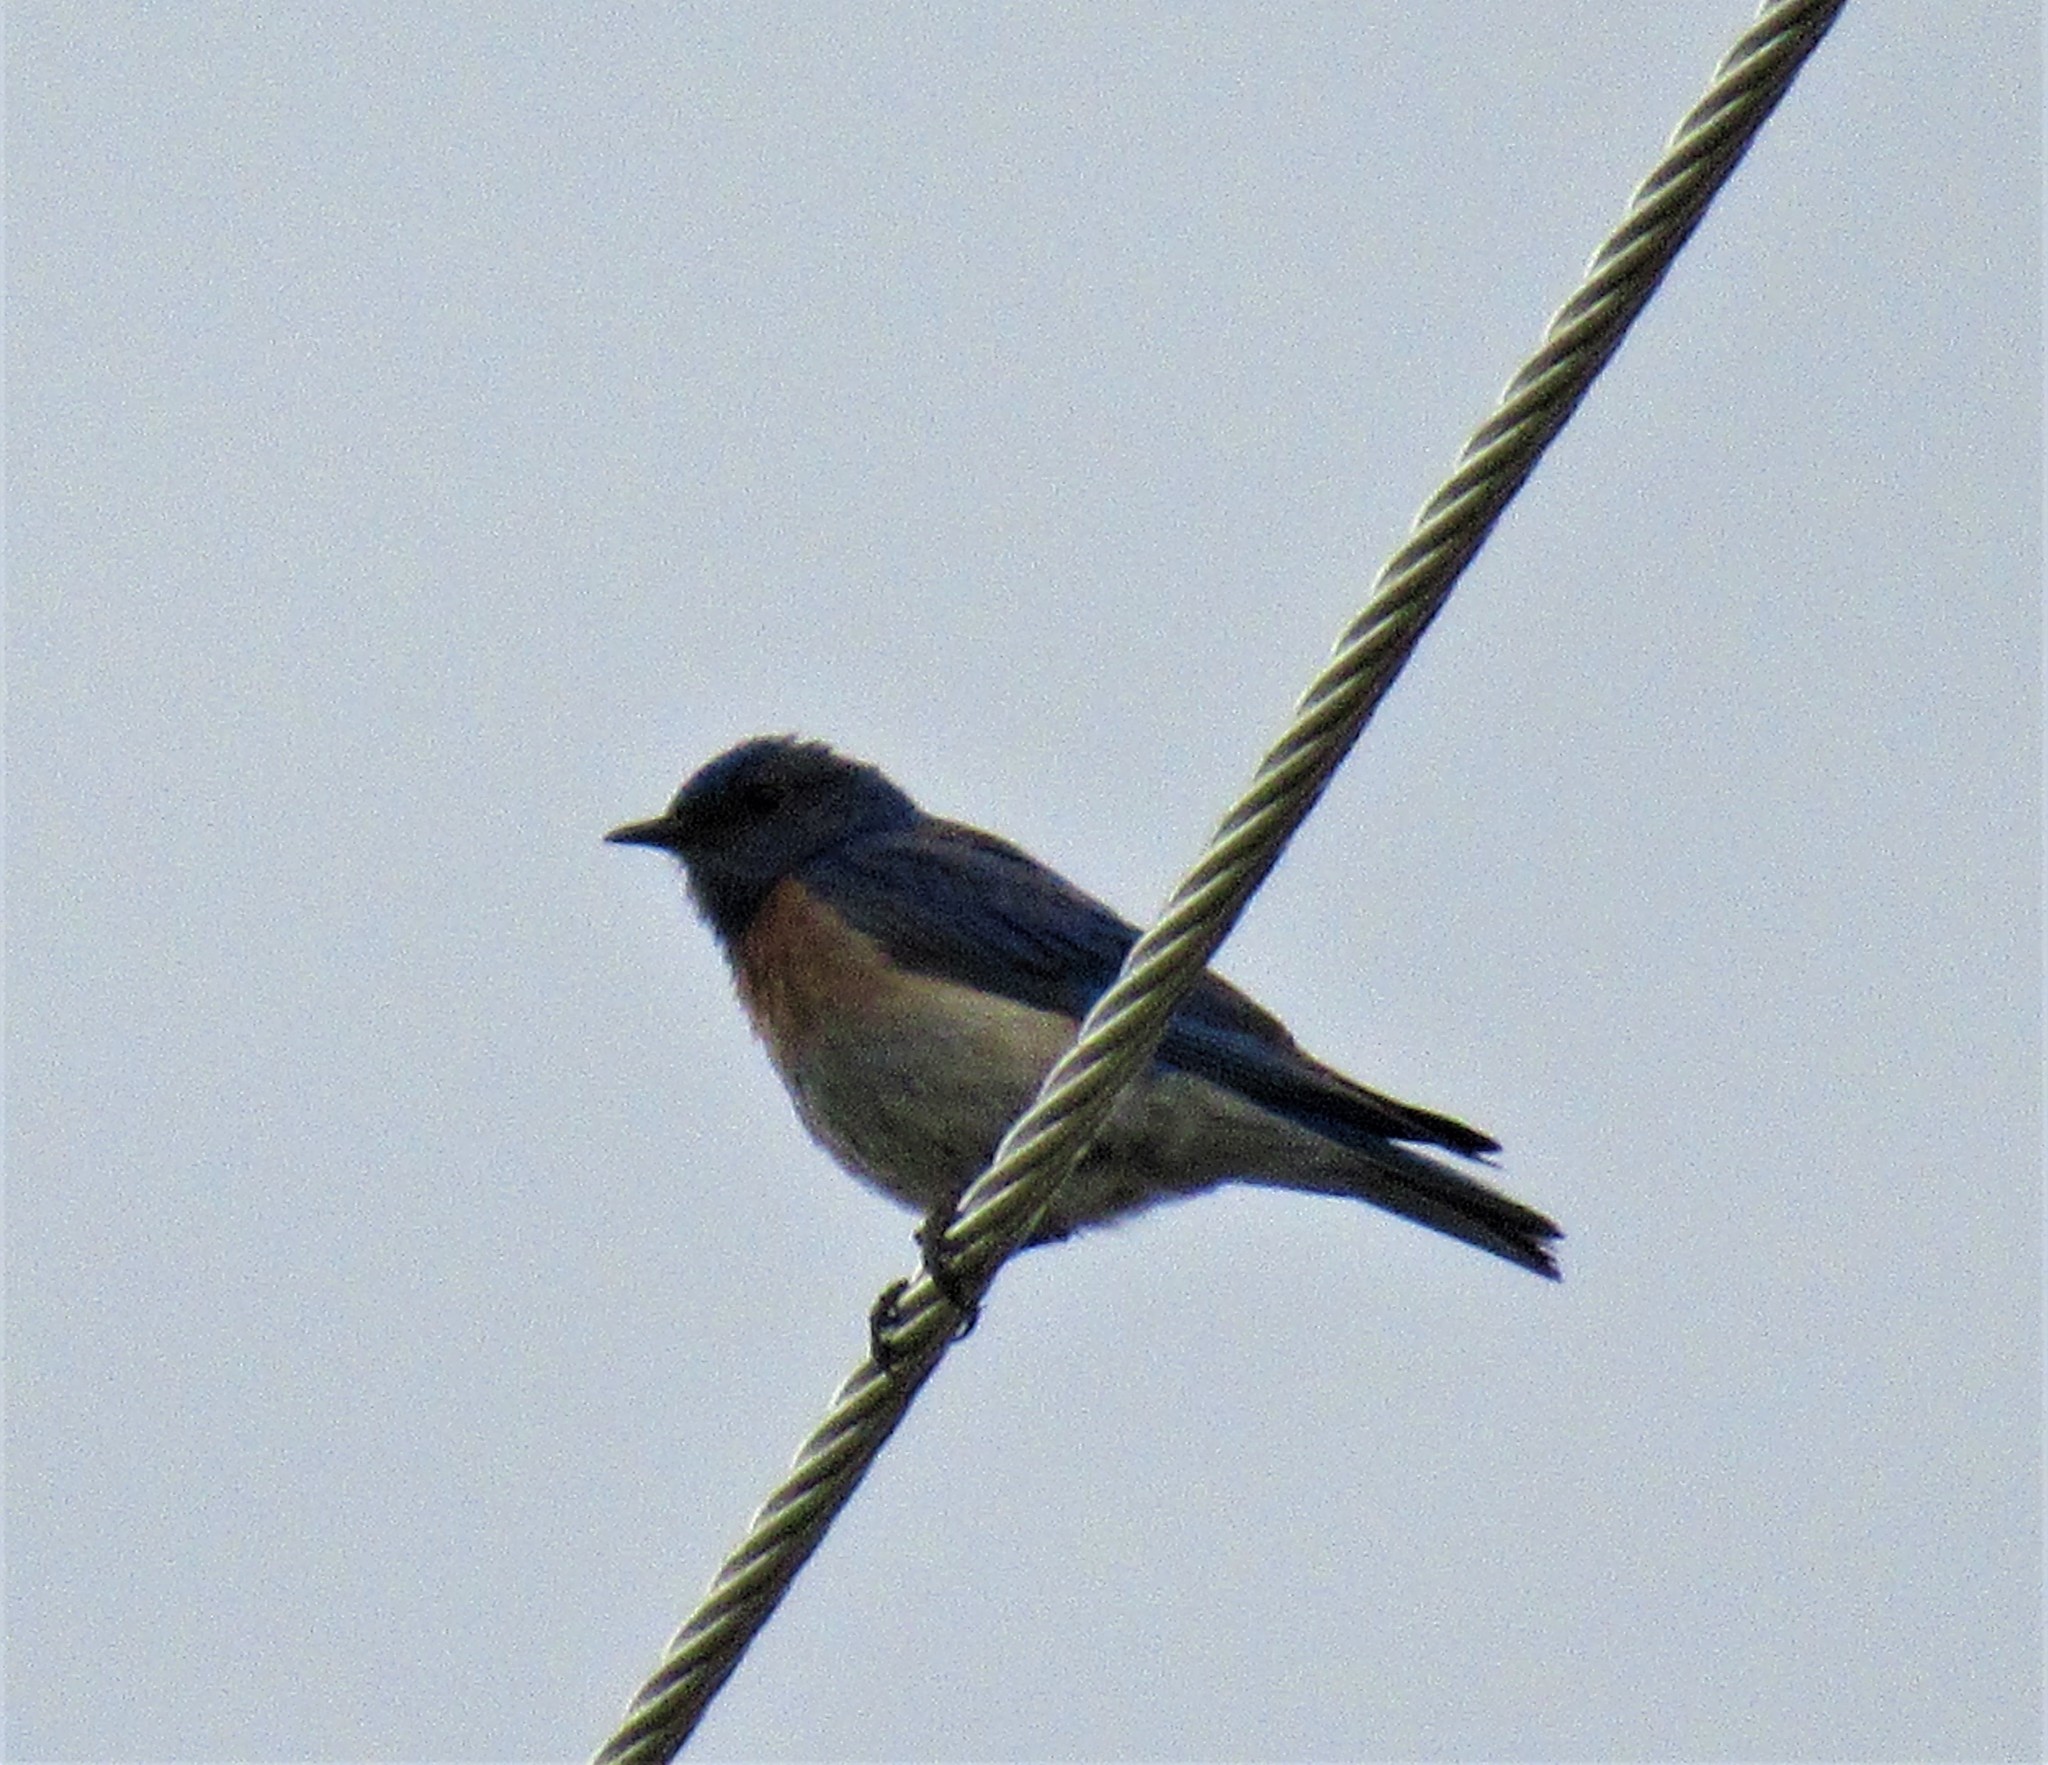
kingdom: Animalia
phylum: Chordata
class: Aves
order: Passeriformes
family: Turdidae
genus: Sialia
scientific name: Sialia mexicana
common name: Western bluebird
